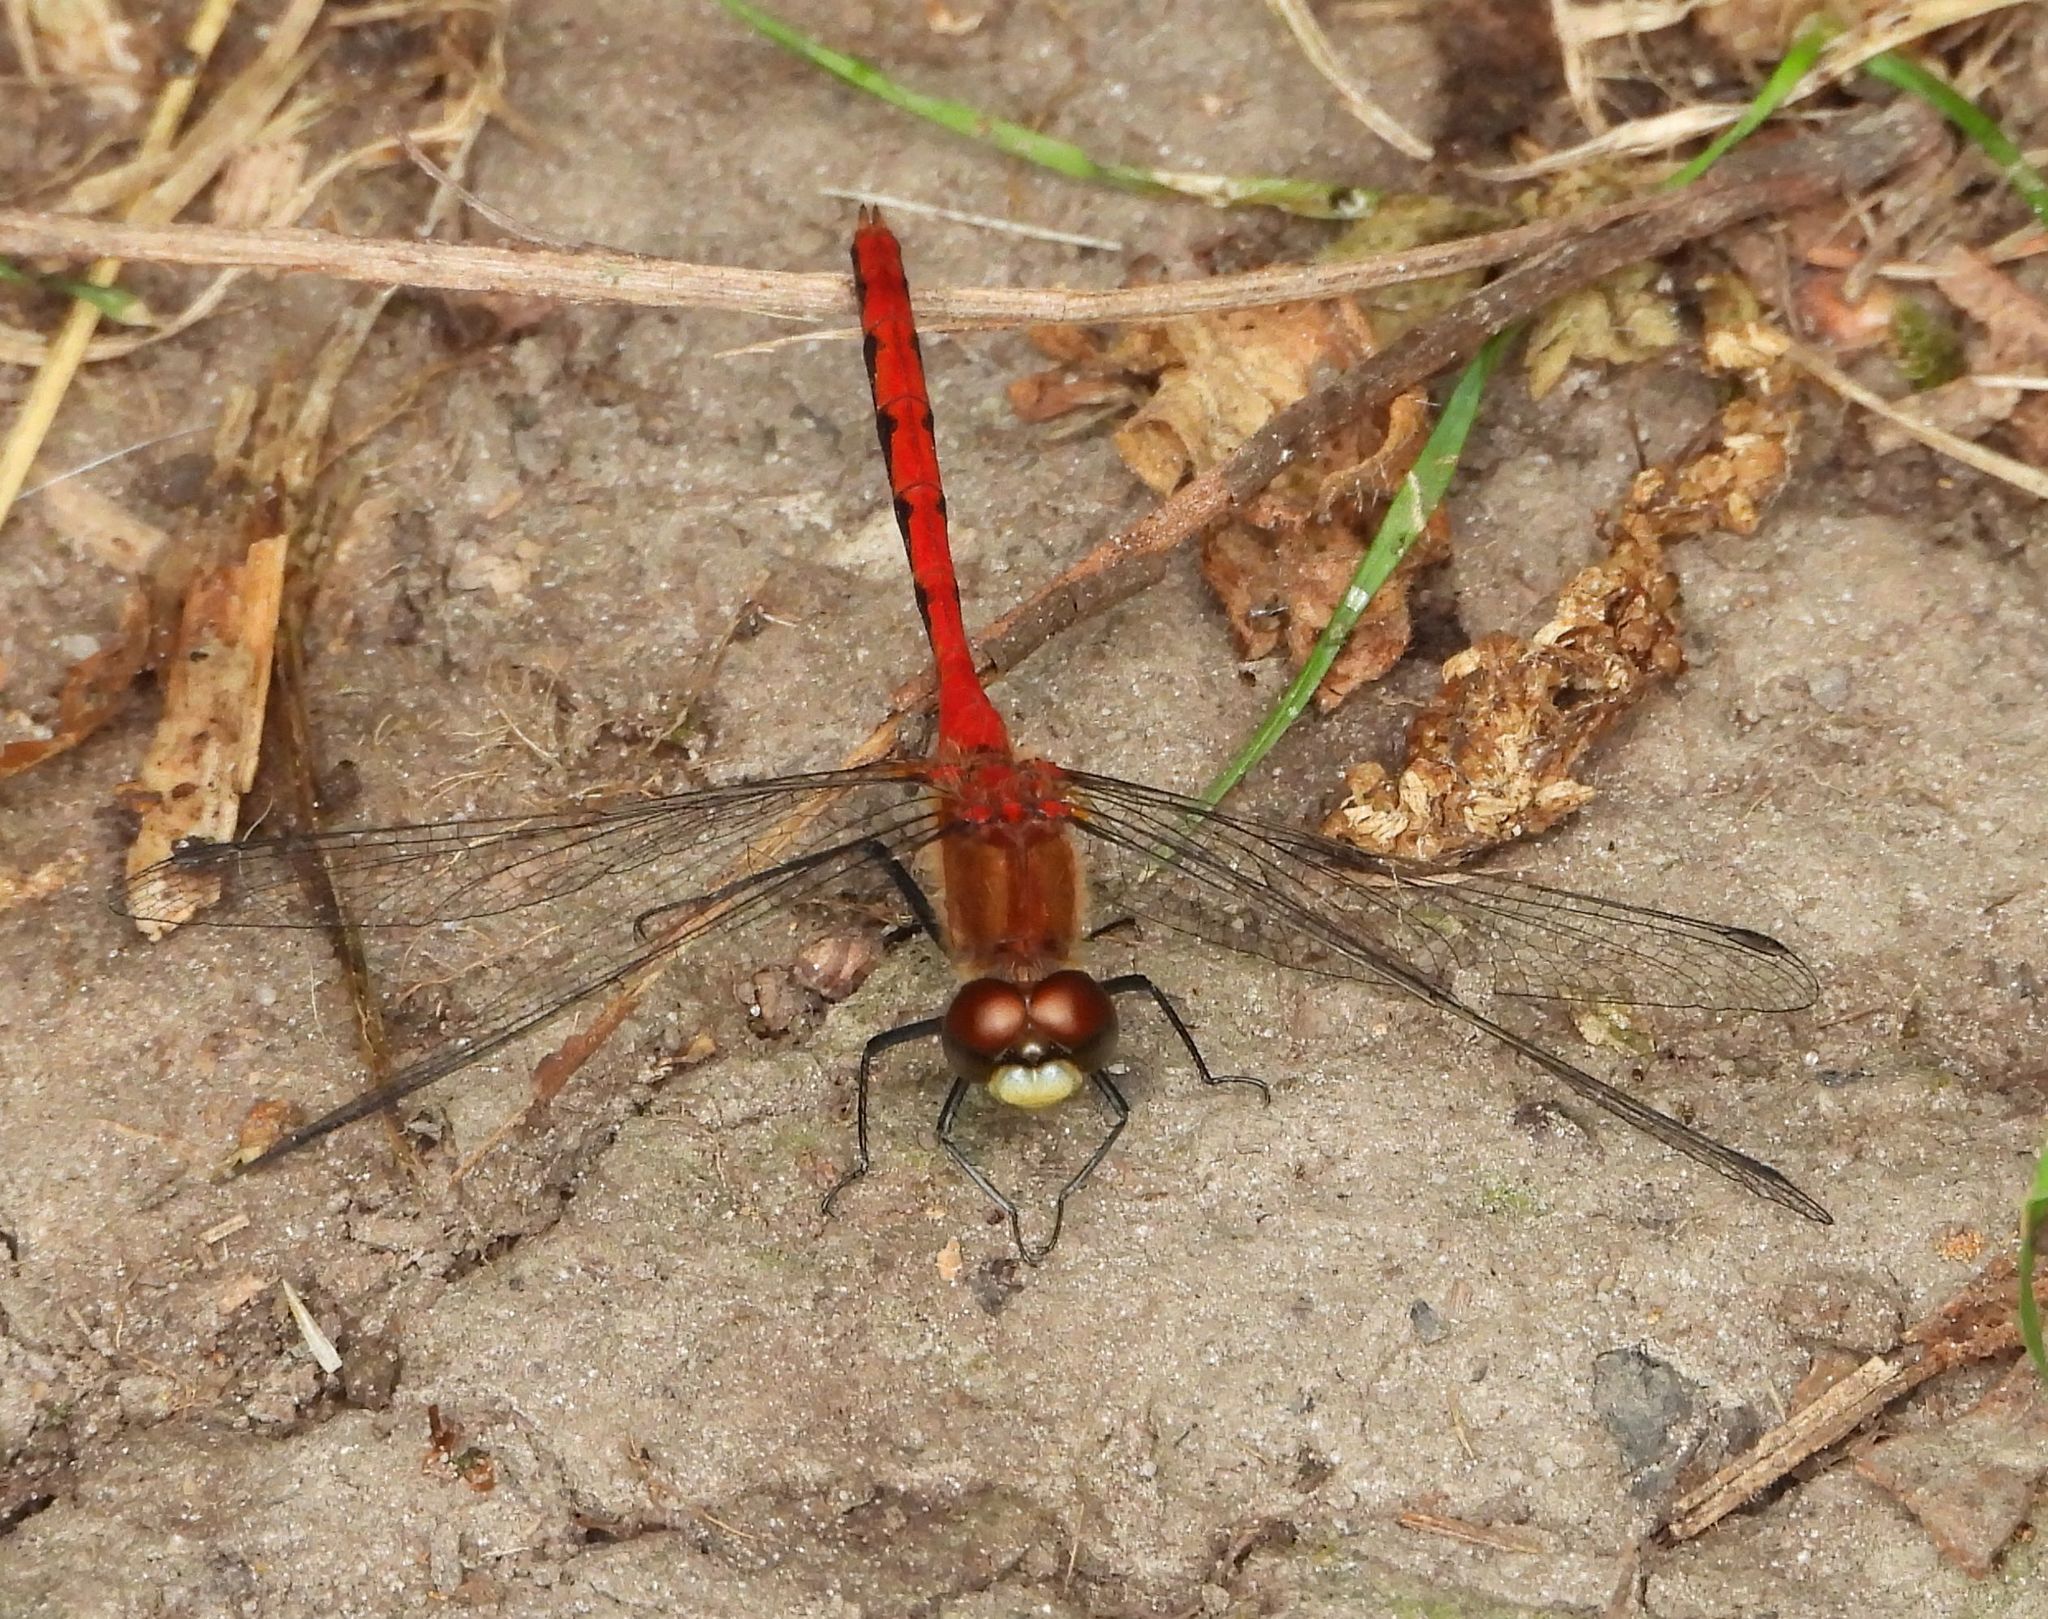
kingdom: Animalia
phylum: Arthropoda
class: Insecta
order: Odonata
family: Libellulidae
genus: Sympetrum
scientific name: Sympetrum obtrusum
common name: White-faced meadowhawk
